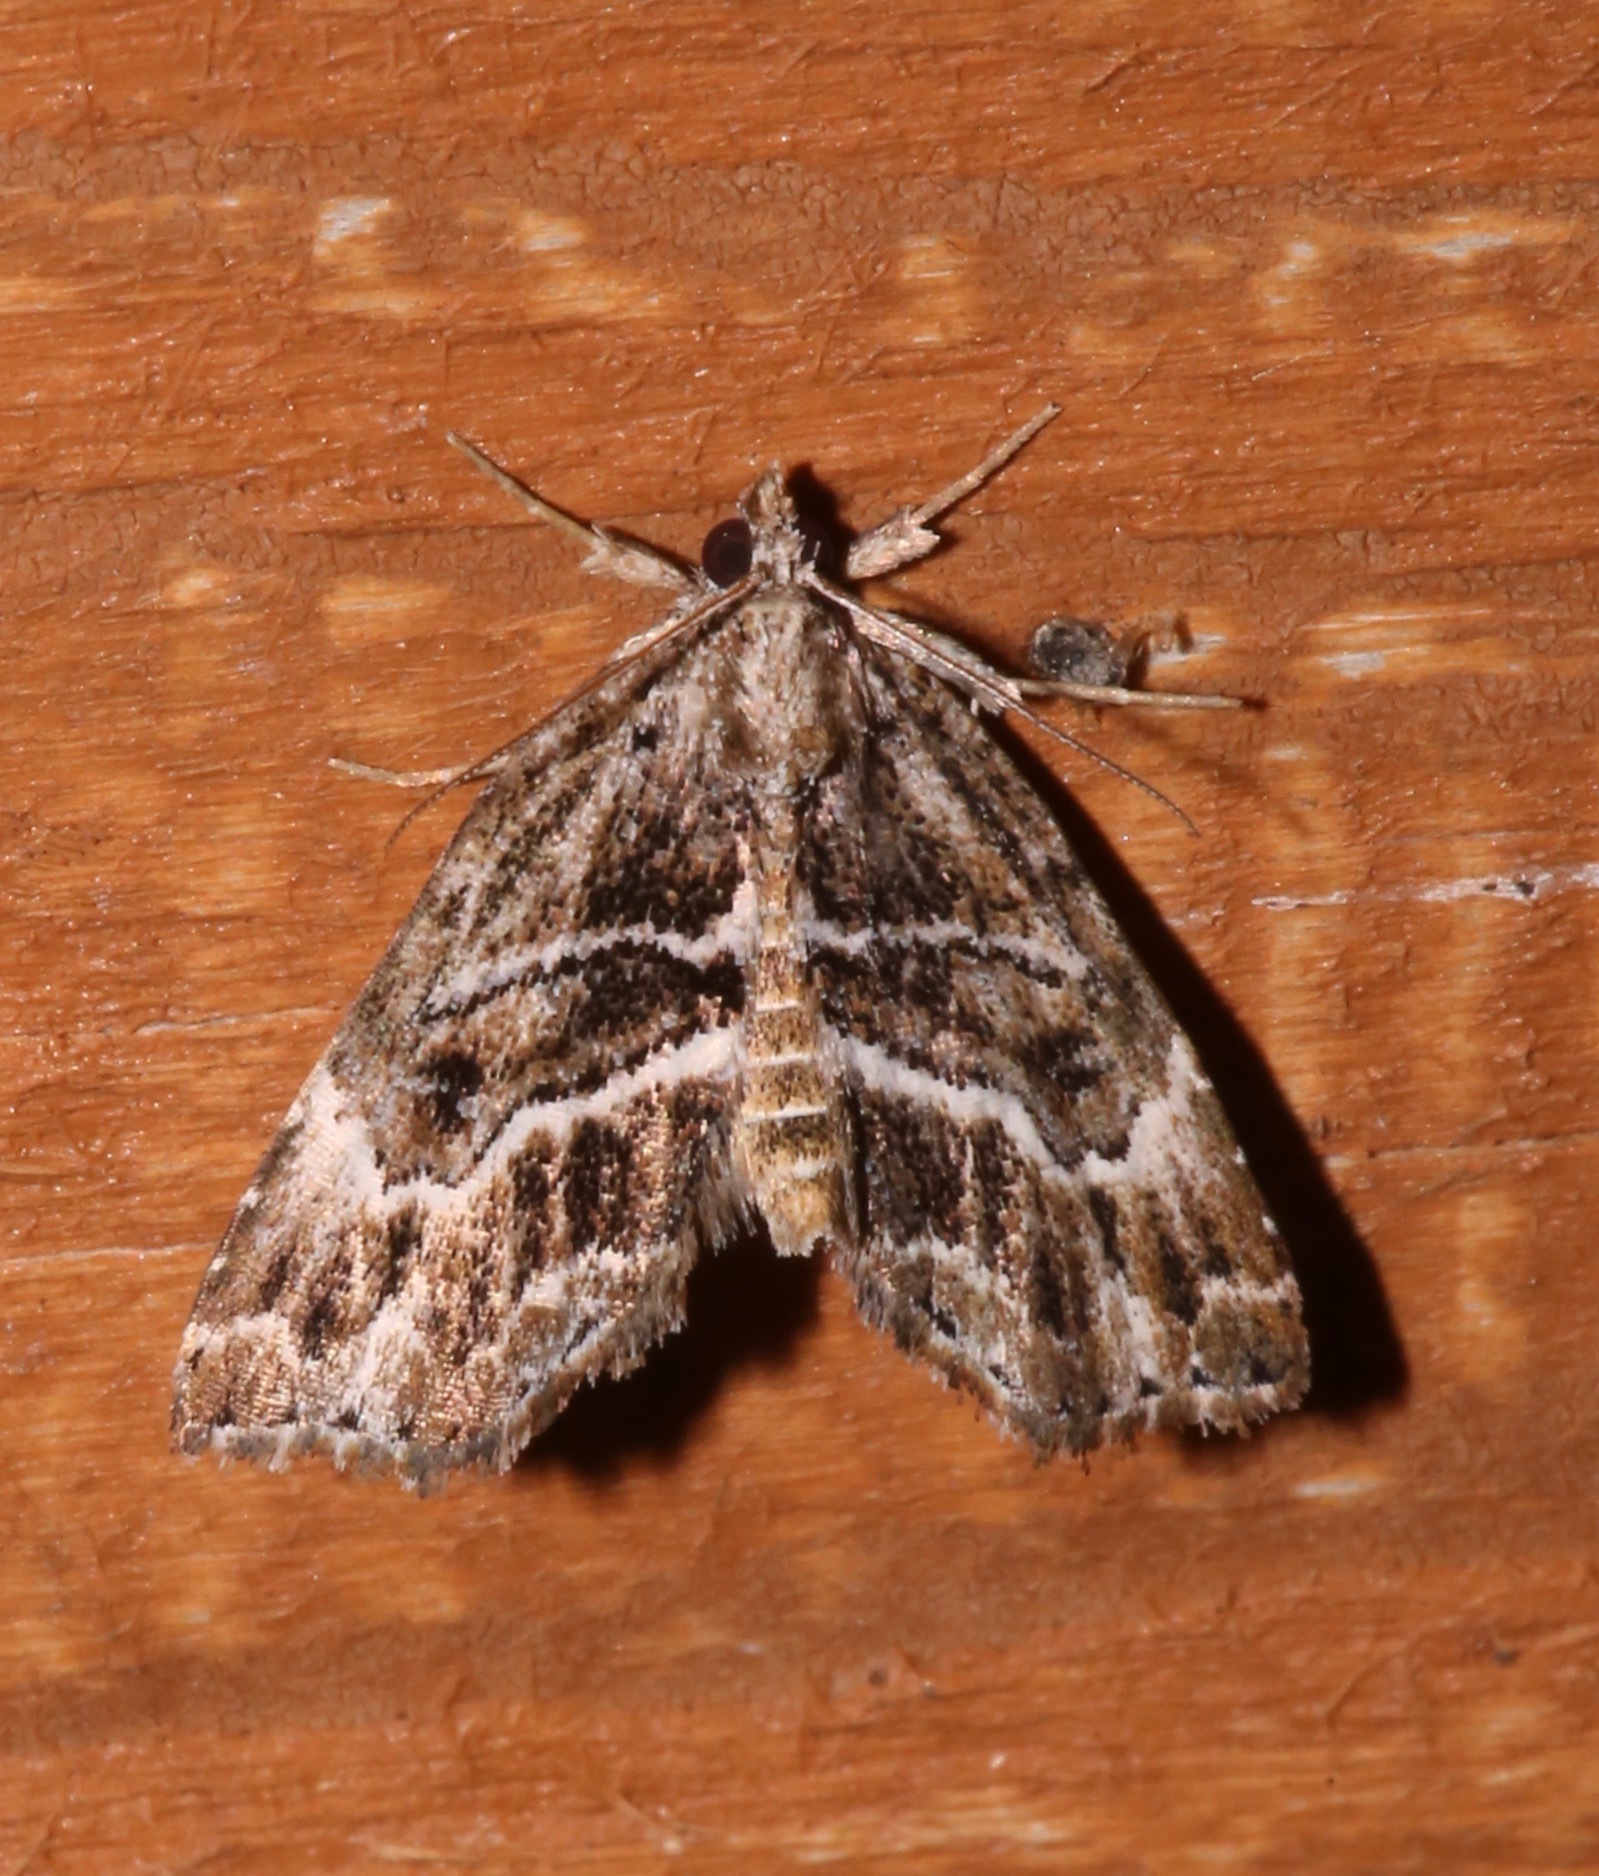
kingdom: Animalia
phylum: Arthropoda
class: Insecta
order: Lepidoptera
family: Erebidae
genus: Cutina
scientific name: Cutina arcuata
